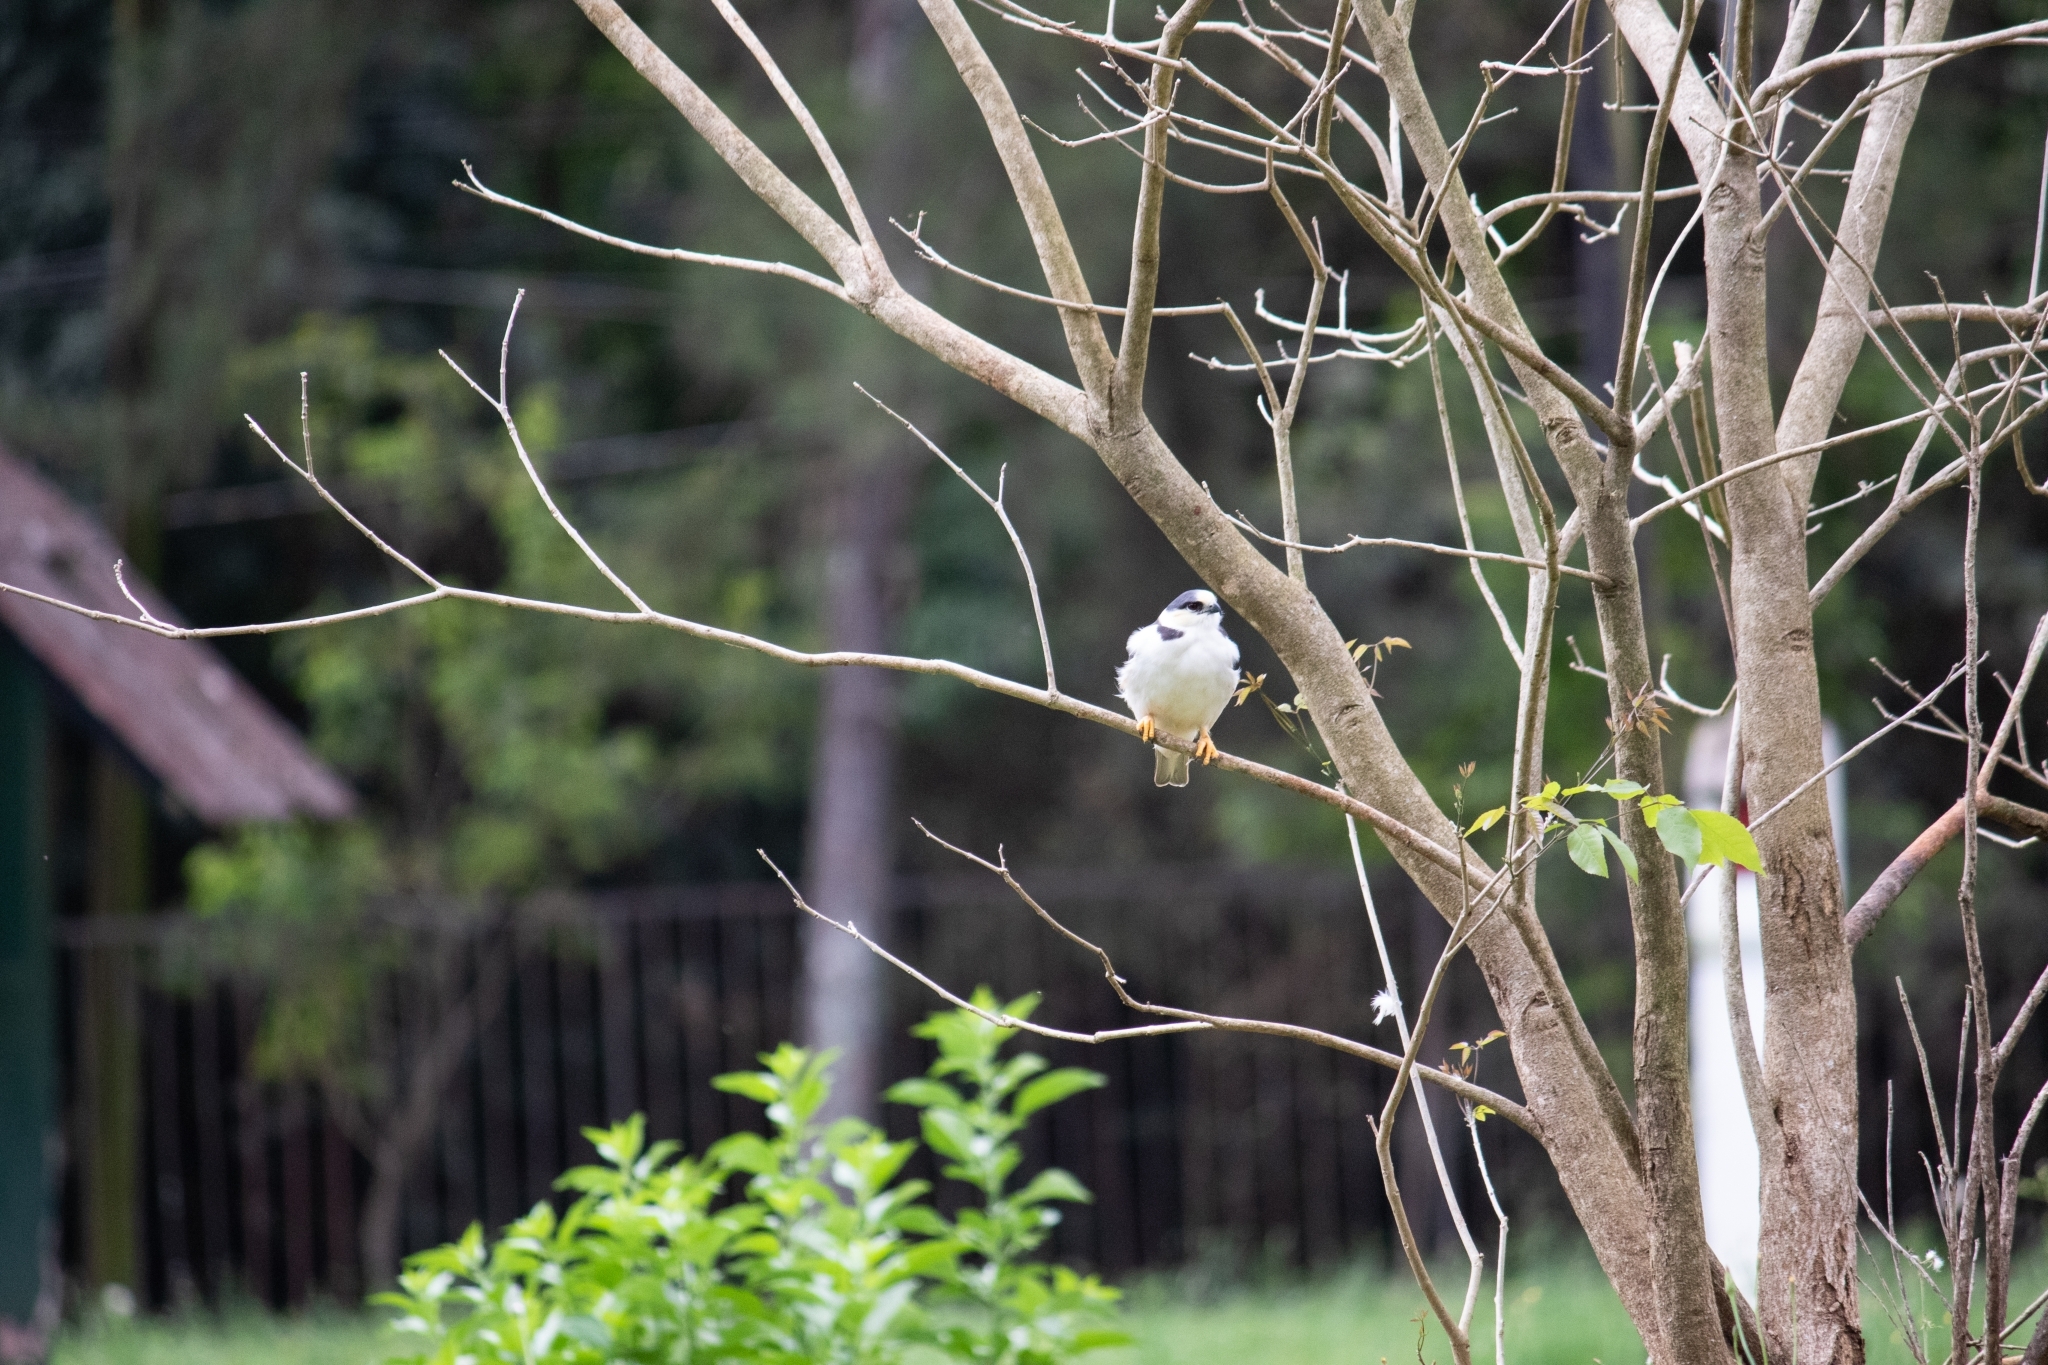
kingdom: Animalia
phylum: Chordata
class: Aves
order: Accipitriformes
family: Accipitridae
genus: Gampsonyx
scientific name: Gampsonyx swainsonii
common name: Pearl kite
